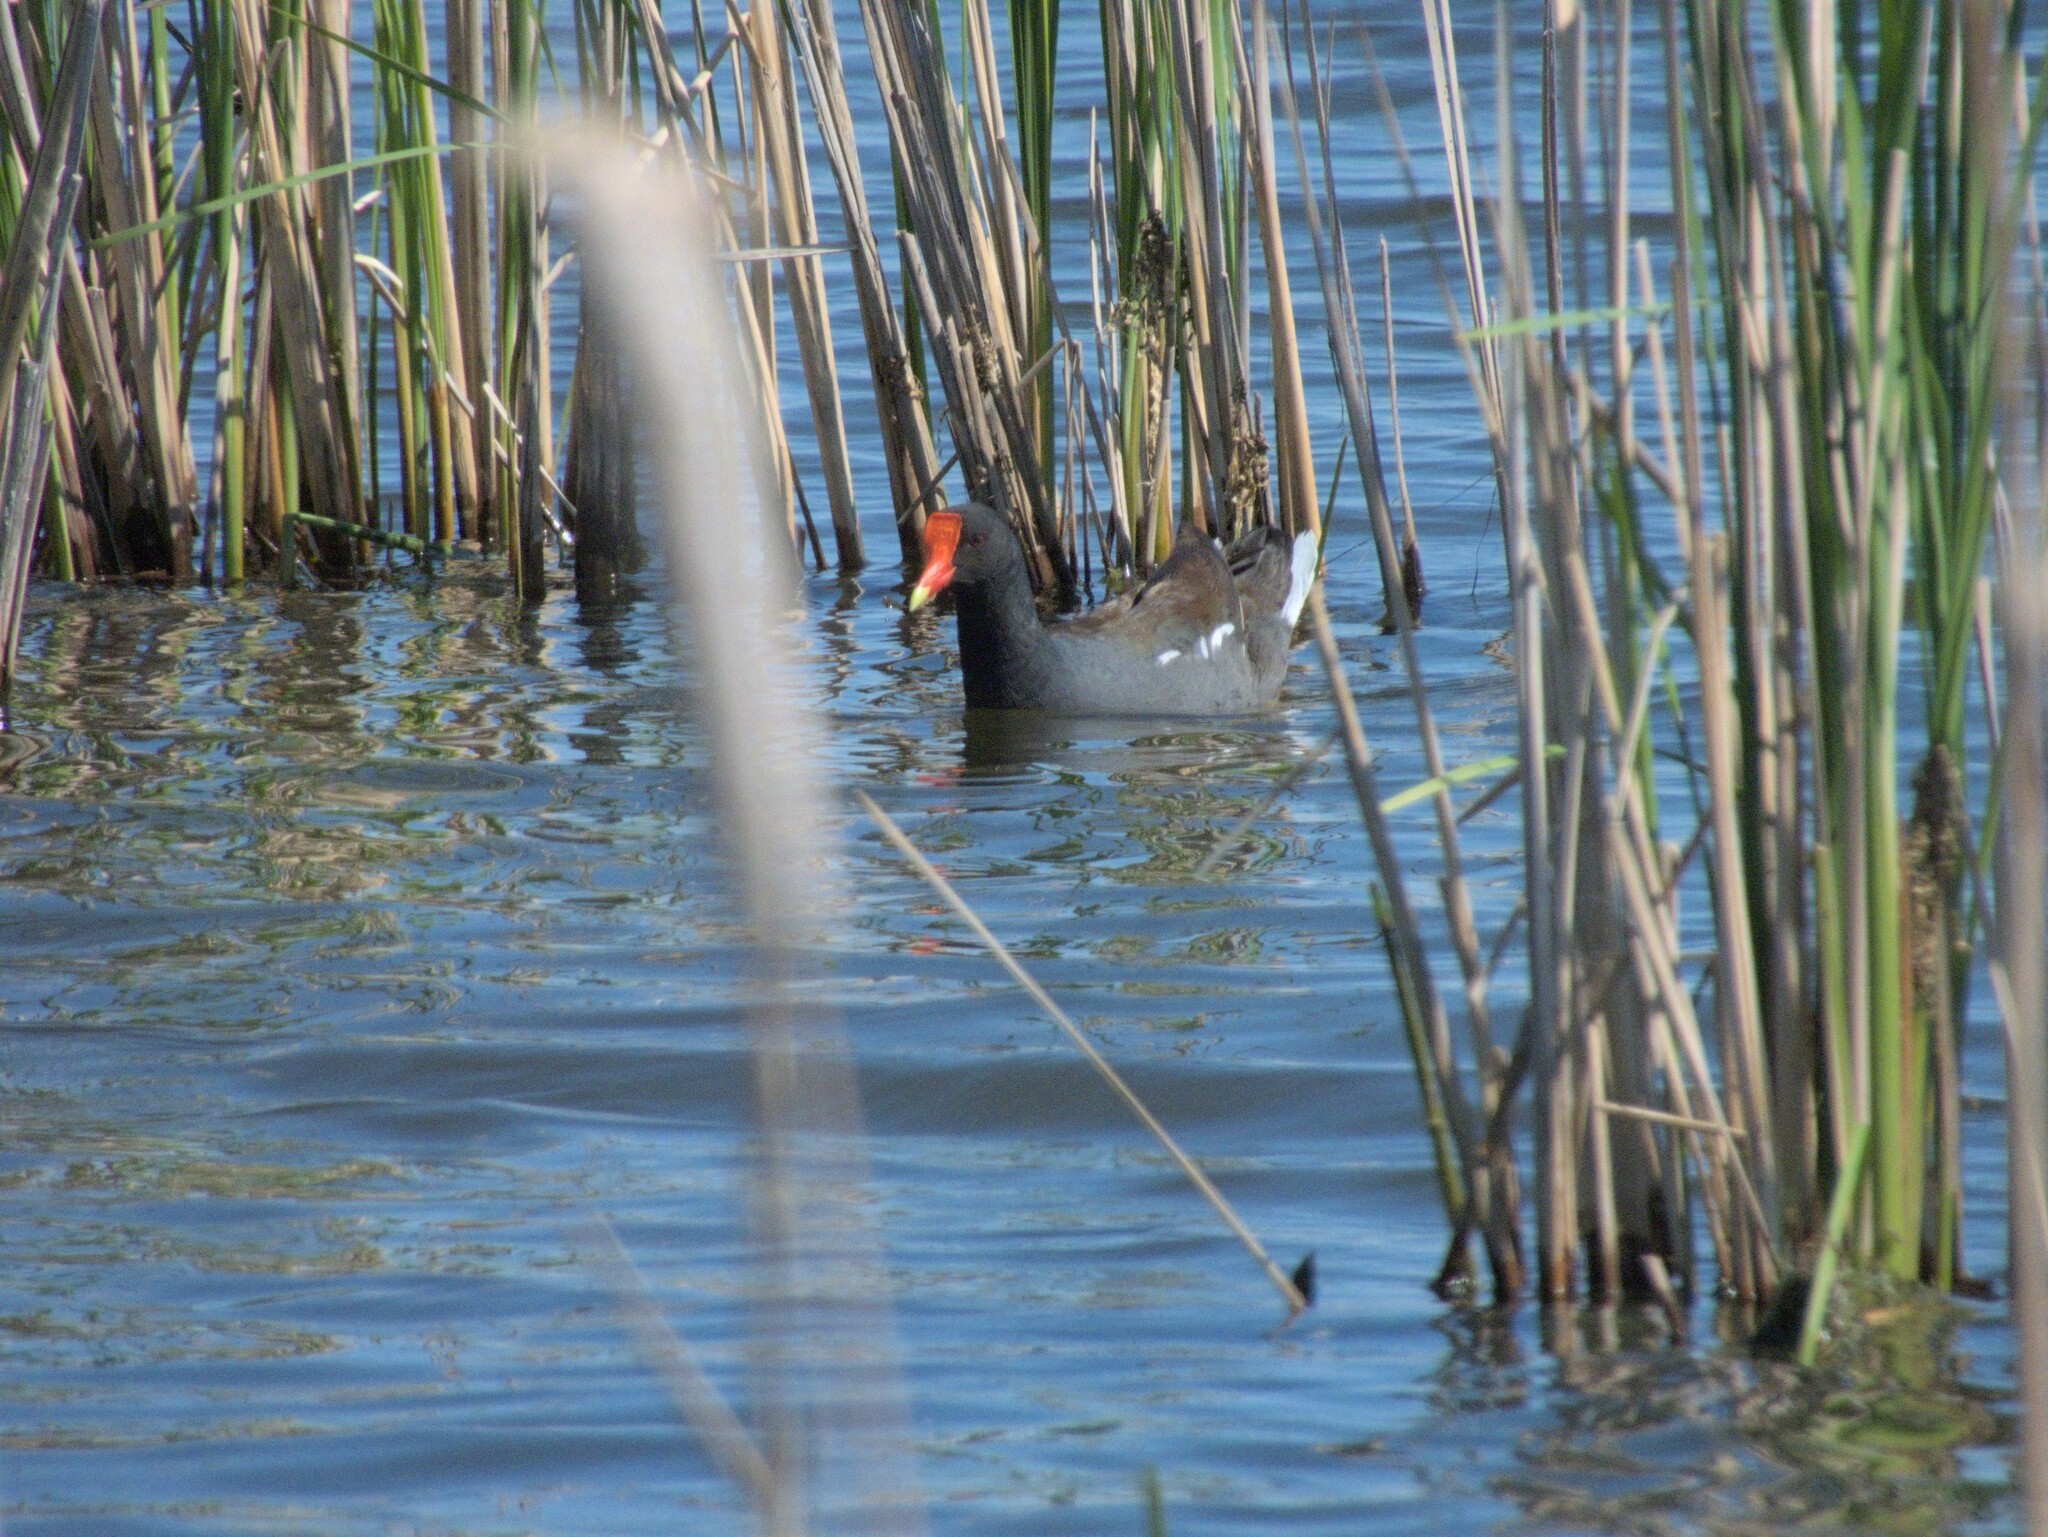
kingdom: Animalia
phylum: Chordata
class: Aves
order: Gruiformes
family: Rallidae
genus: Gallinula
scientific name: Gallinula chloropus
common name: Common moorhen
